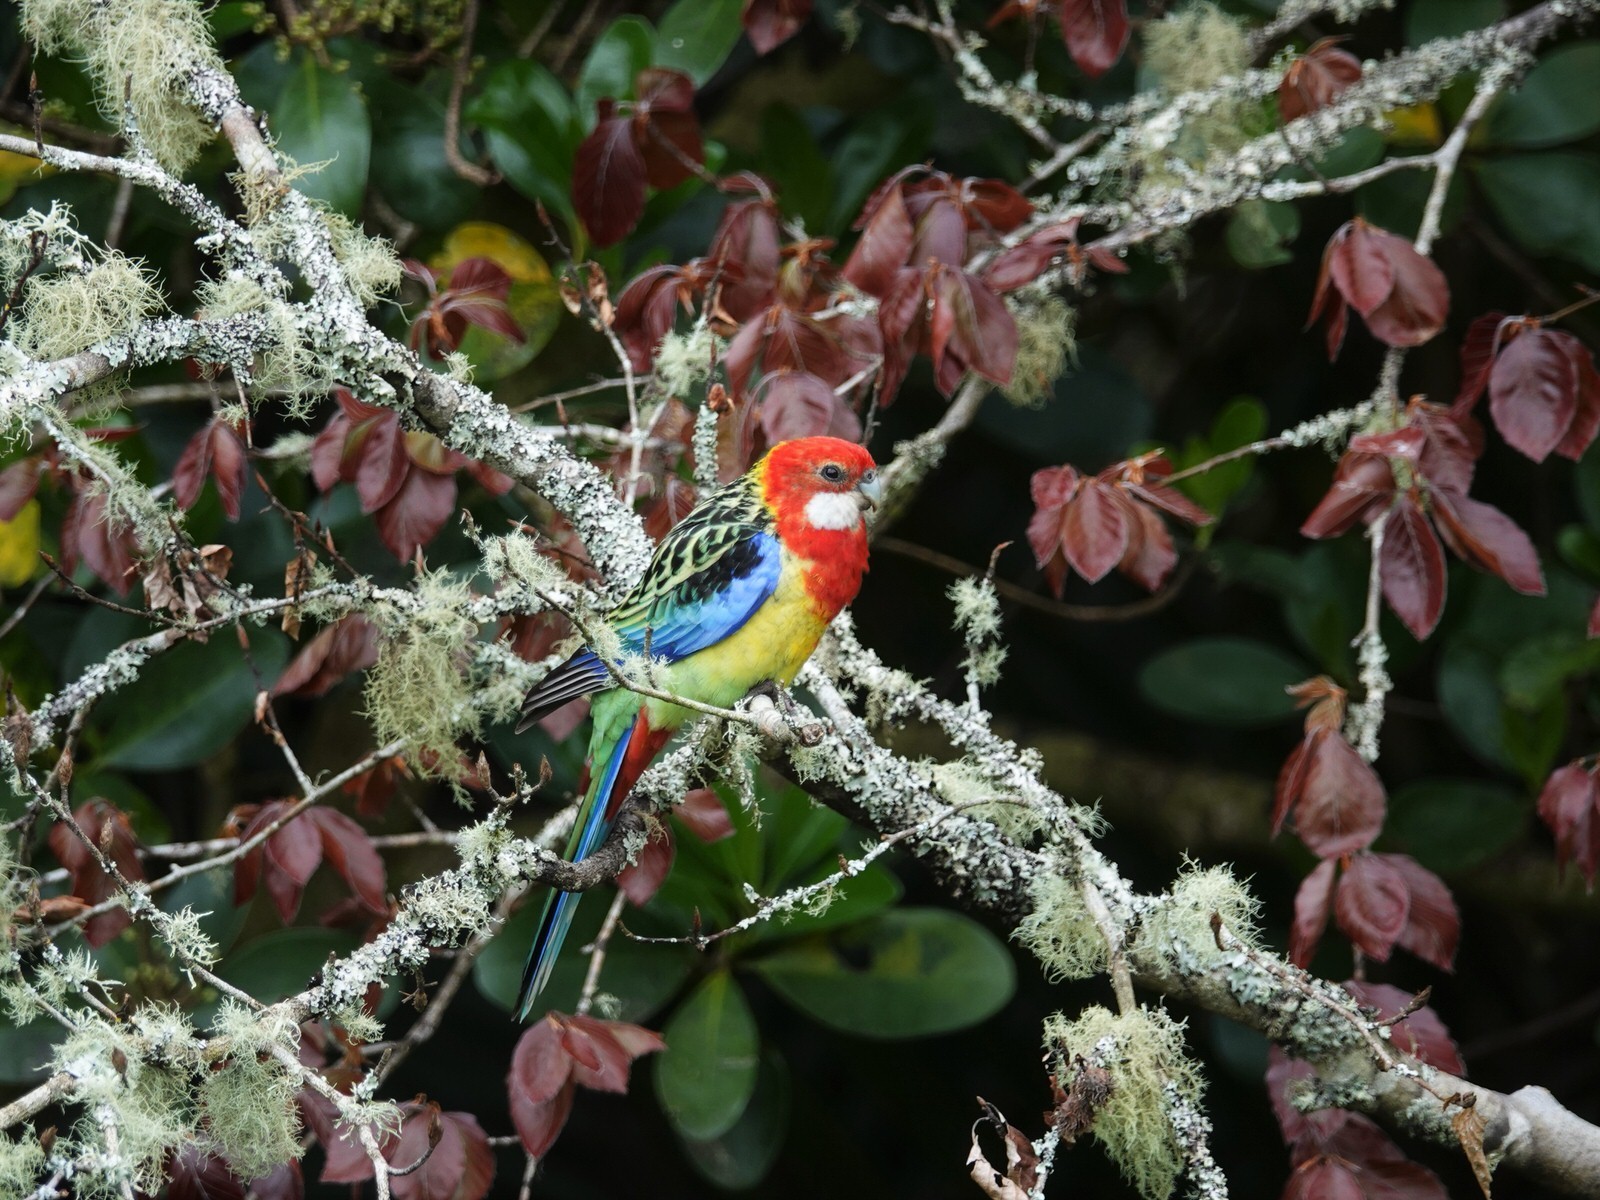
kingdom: Animalia
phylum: Chordata
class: Aves
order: Psittaciformes
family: Psittacidae
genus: Platycercus
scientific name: Platycercus eximius
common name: Eastern rosella
